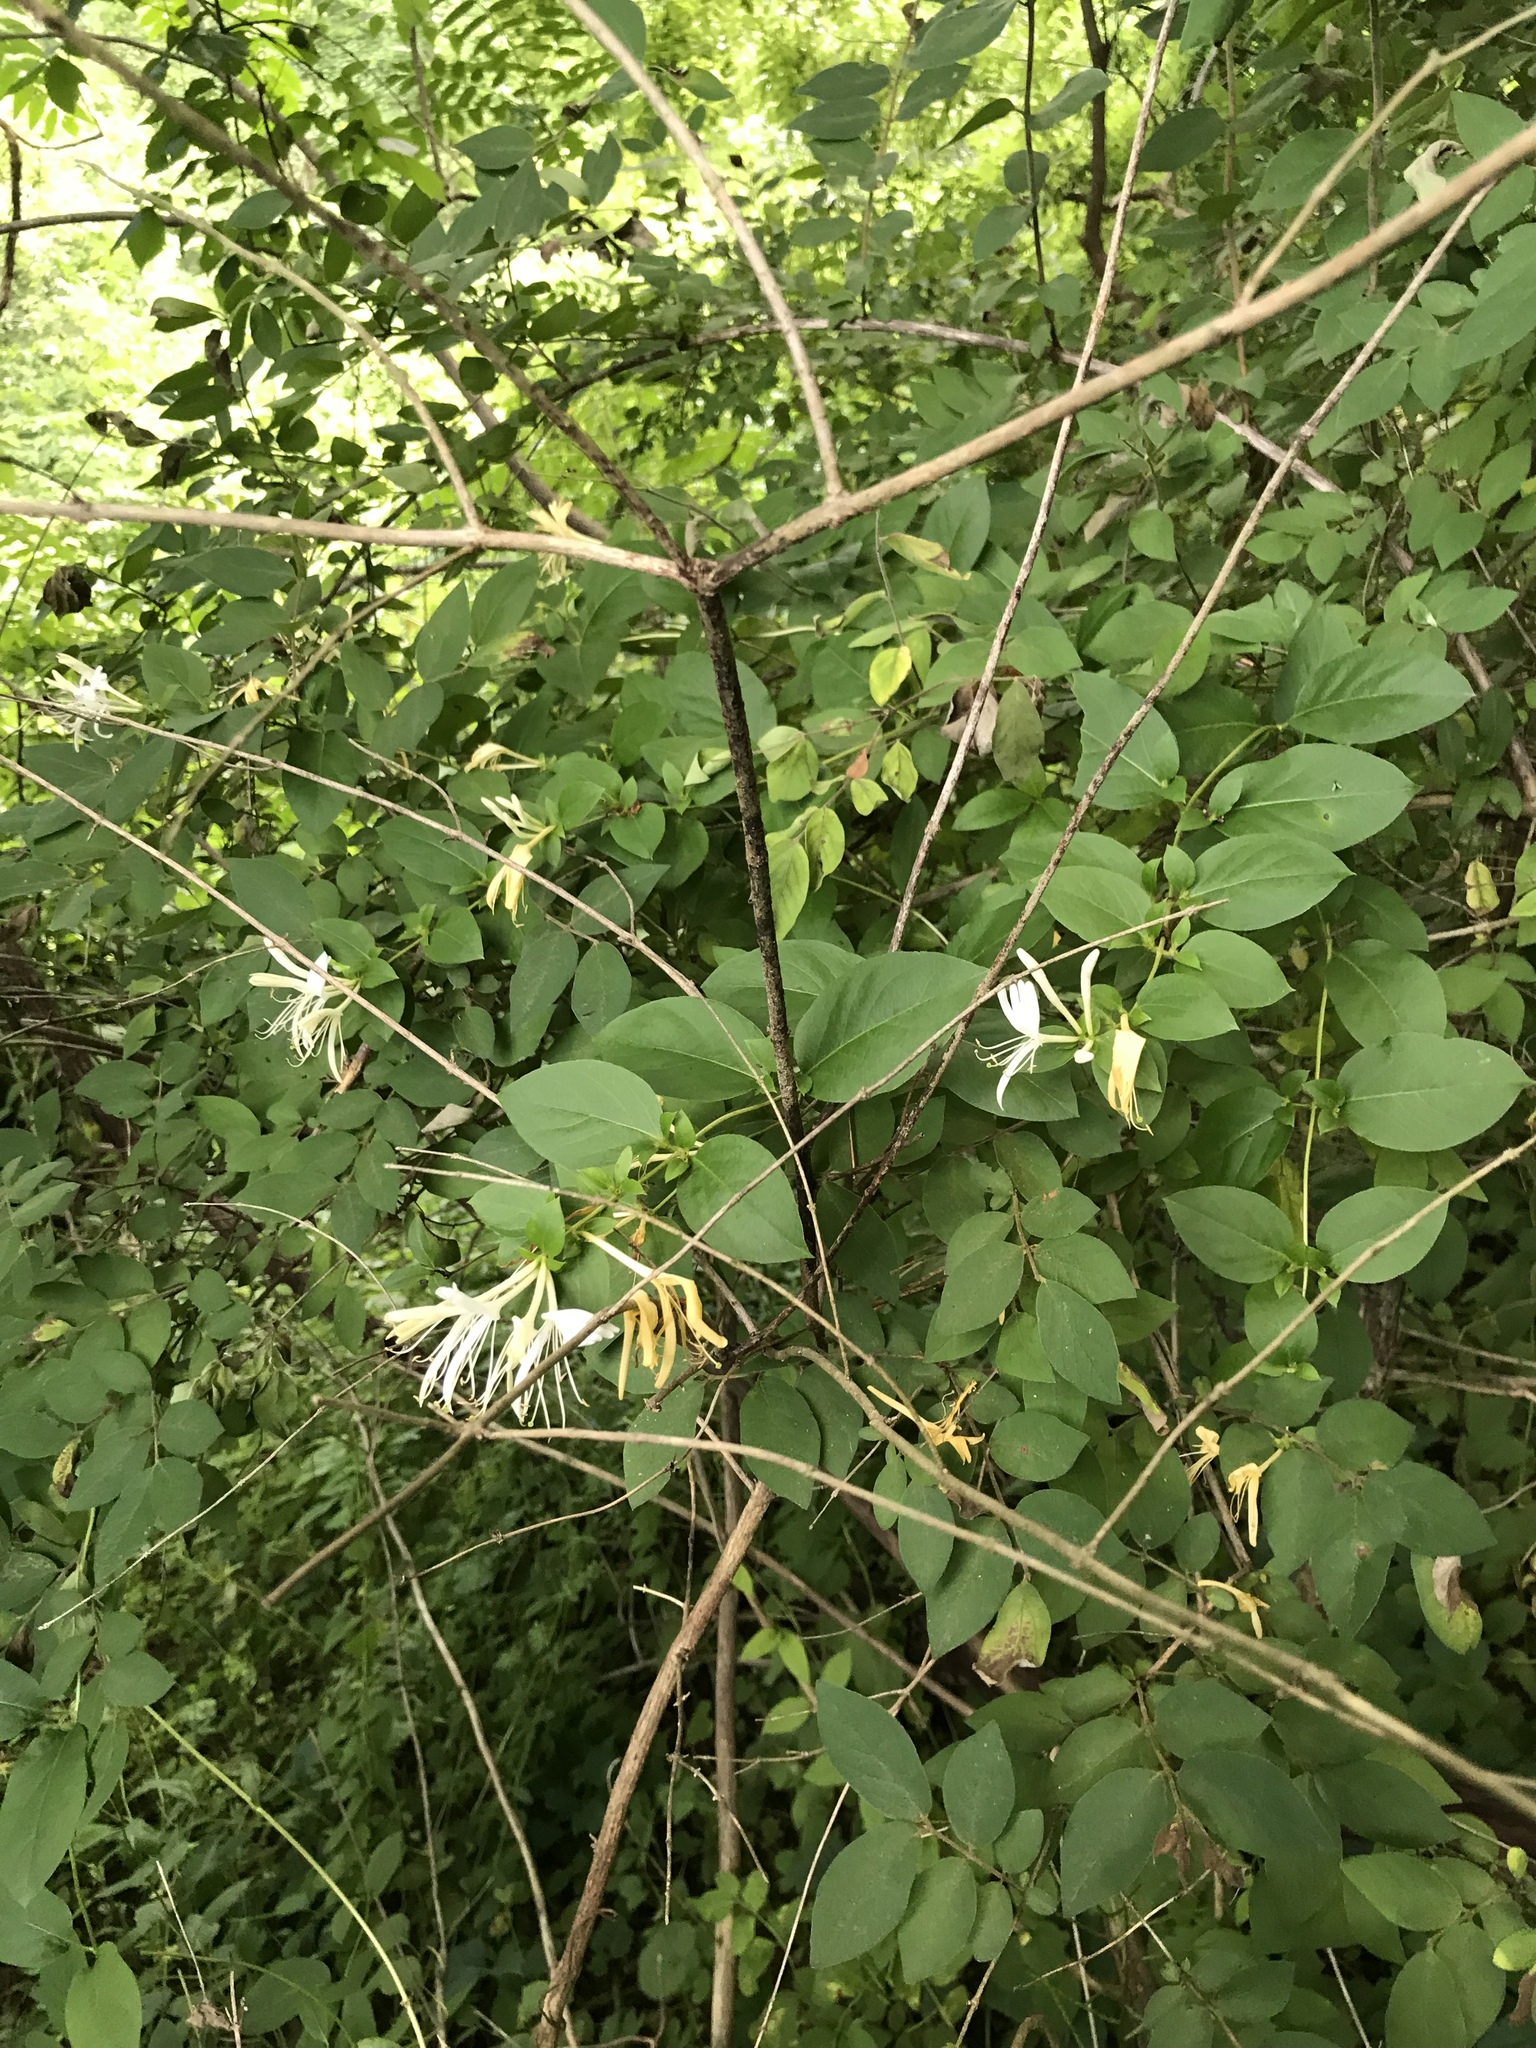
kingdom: Plantae
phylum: Tracheophyta
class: Magnoliopsida
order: Dipsacales
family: Caprifoliaceae
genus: Lonicera
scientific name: Lonicera japonica
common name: Japanese honeysuckle
